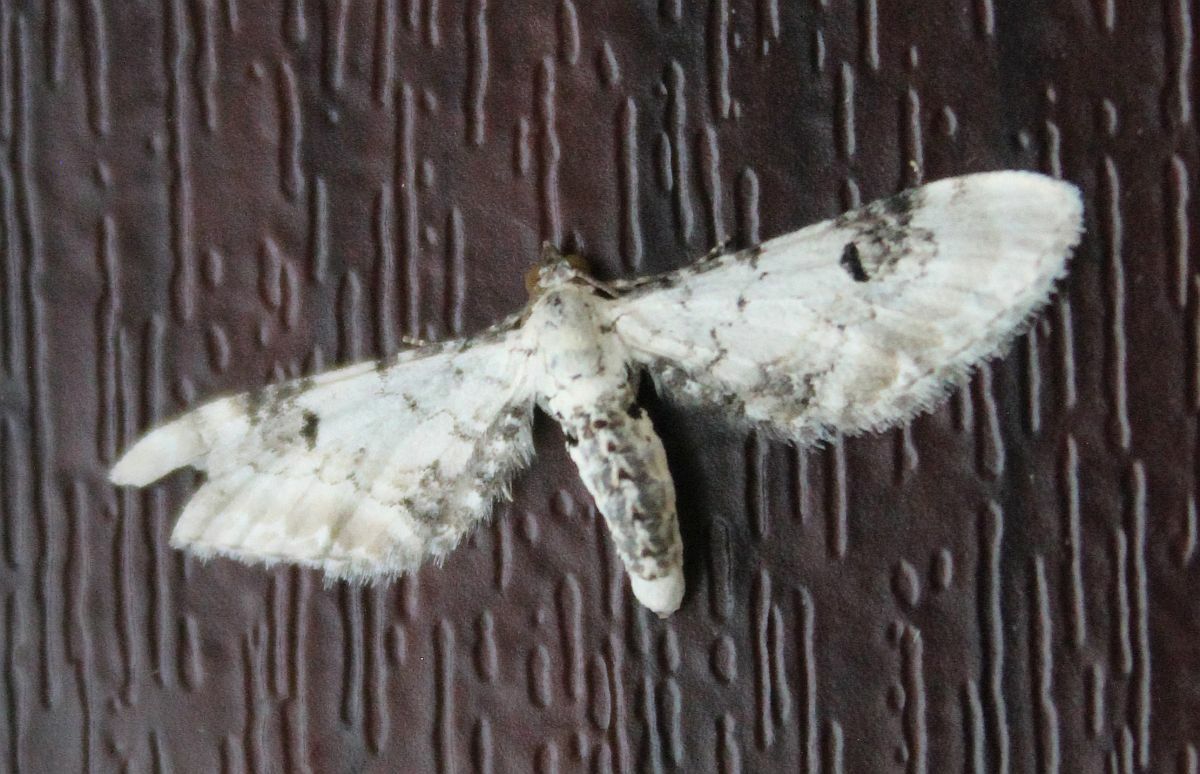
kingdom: Animalia
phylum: Arthropoda
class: Insecta
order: Lepidoptera
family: Geometridae
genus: Eupithecia
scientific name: Eupithecia centaureata
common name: Lime-speck pug
